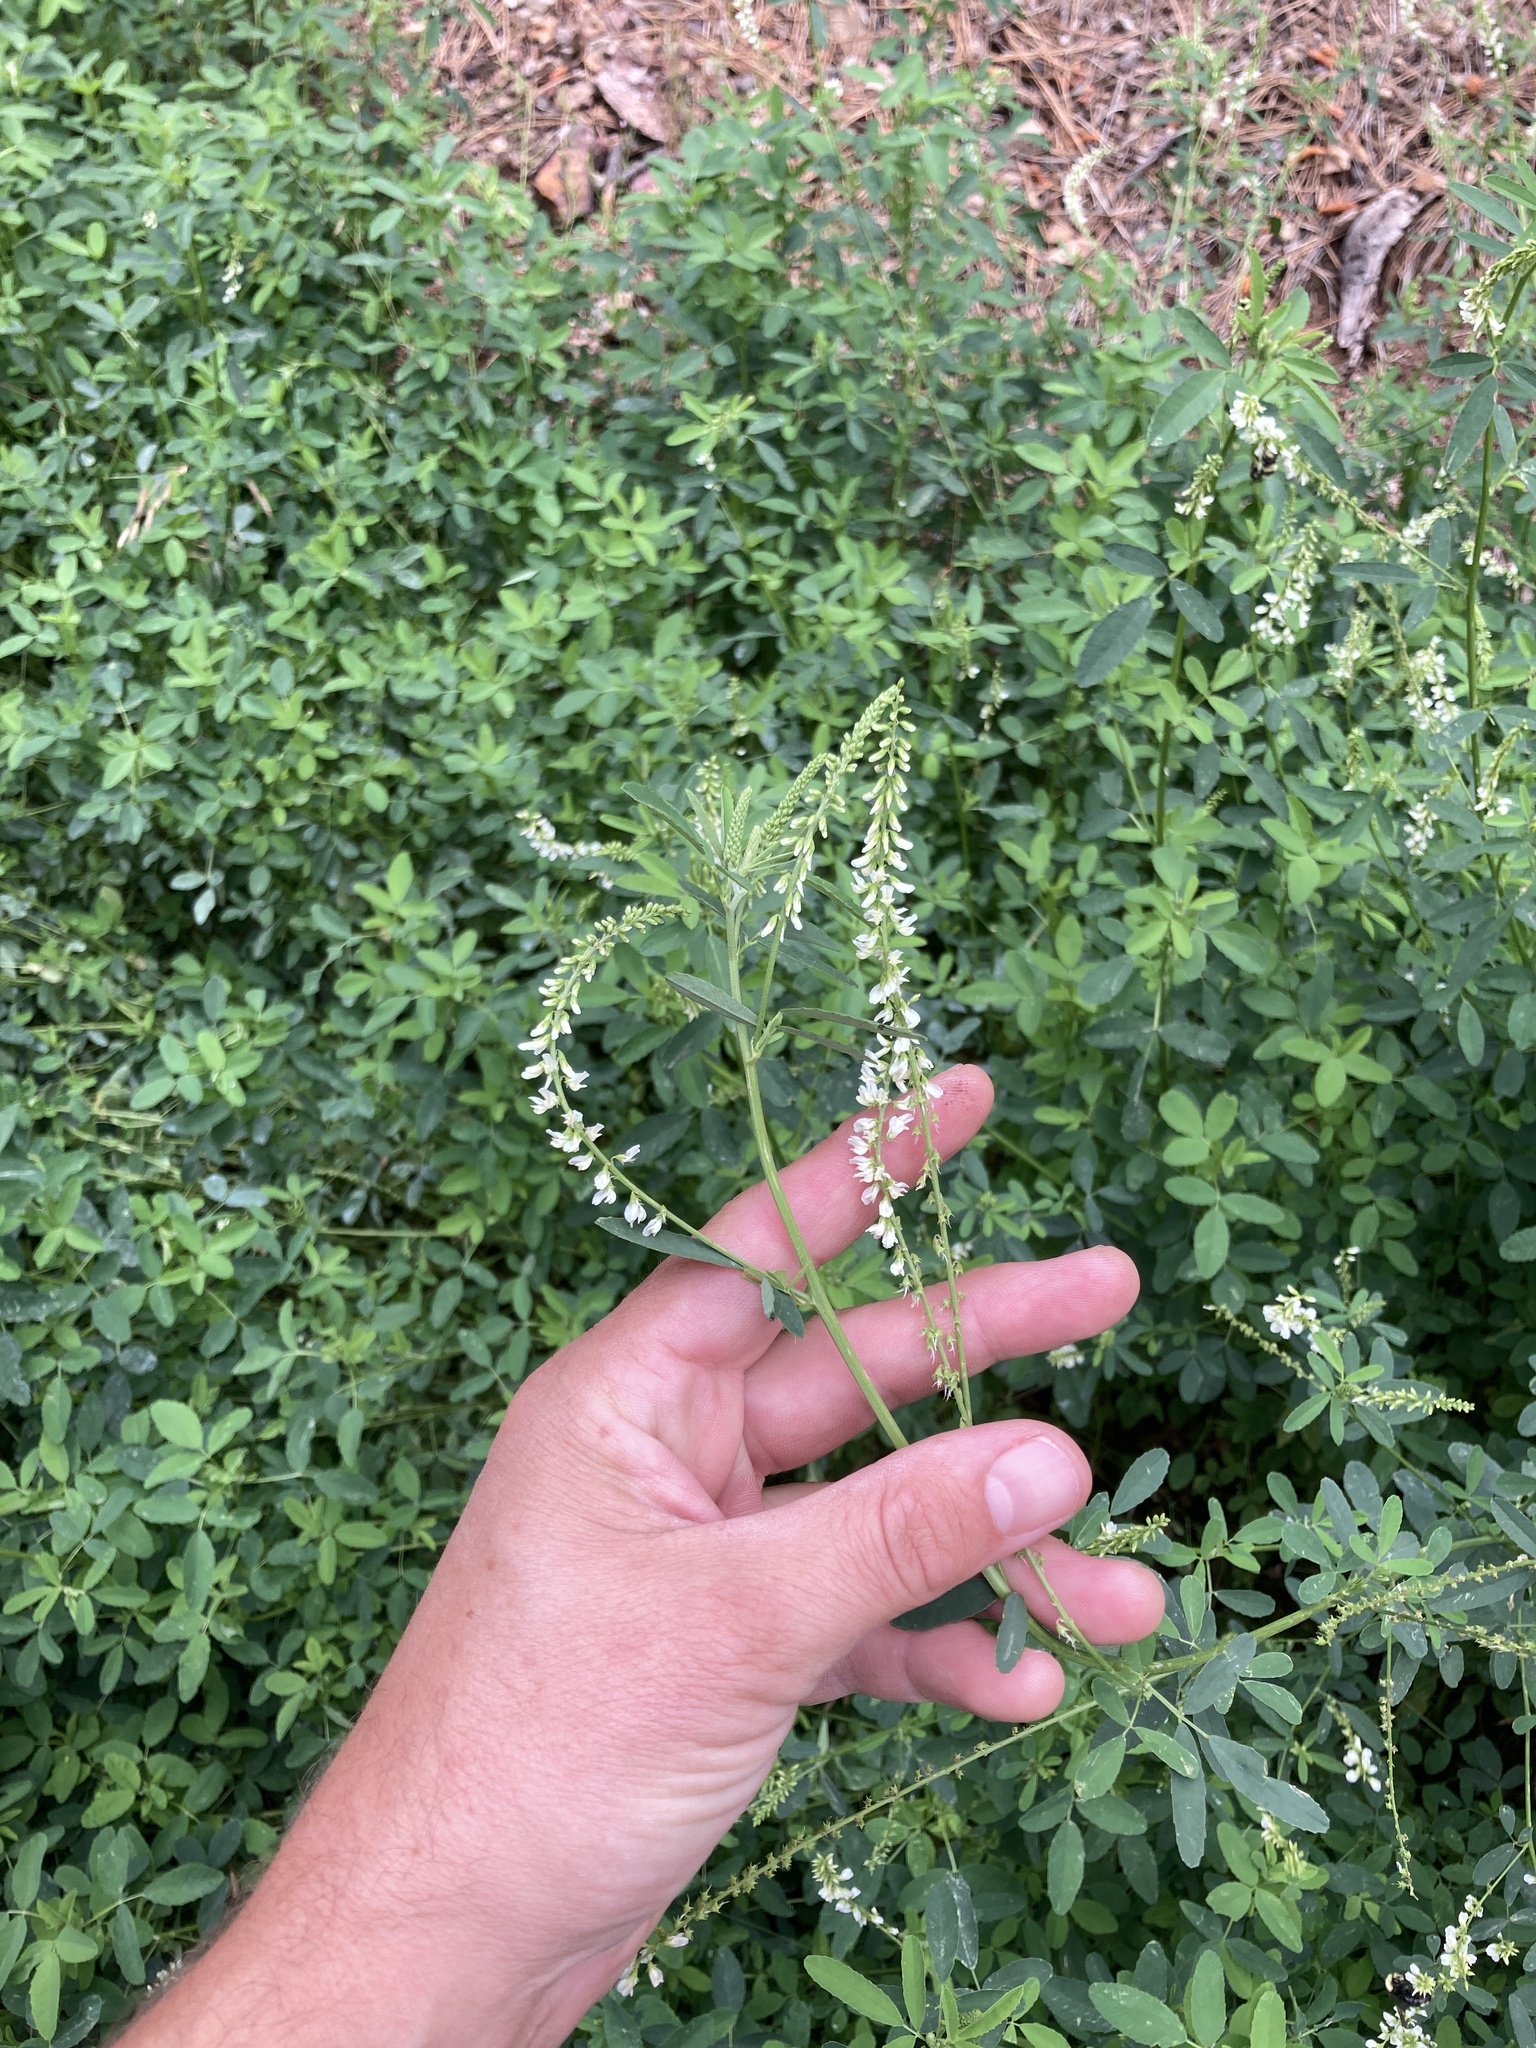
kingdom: Plantae
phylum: Tracheophyta
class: Magnoliopsida
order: Fabales
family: Fabaceae
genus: Melilotus
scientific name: Melilotus albus
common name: White melilot
